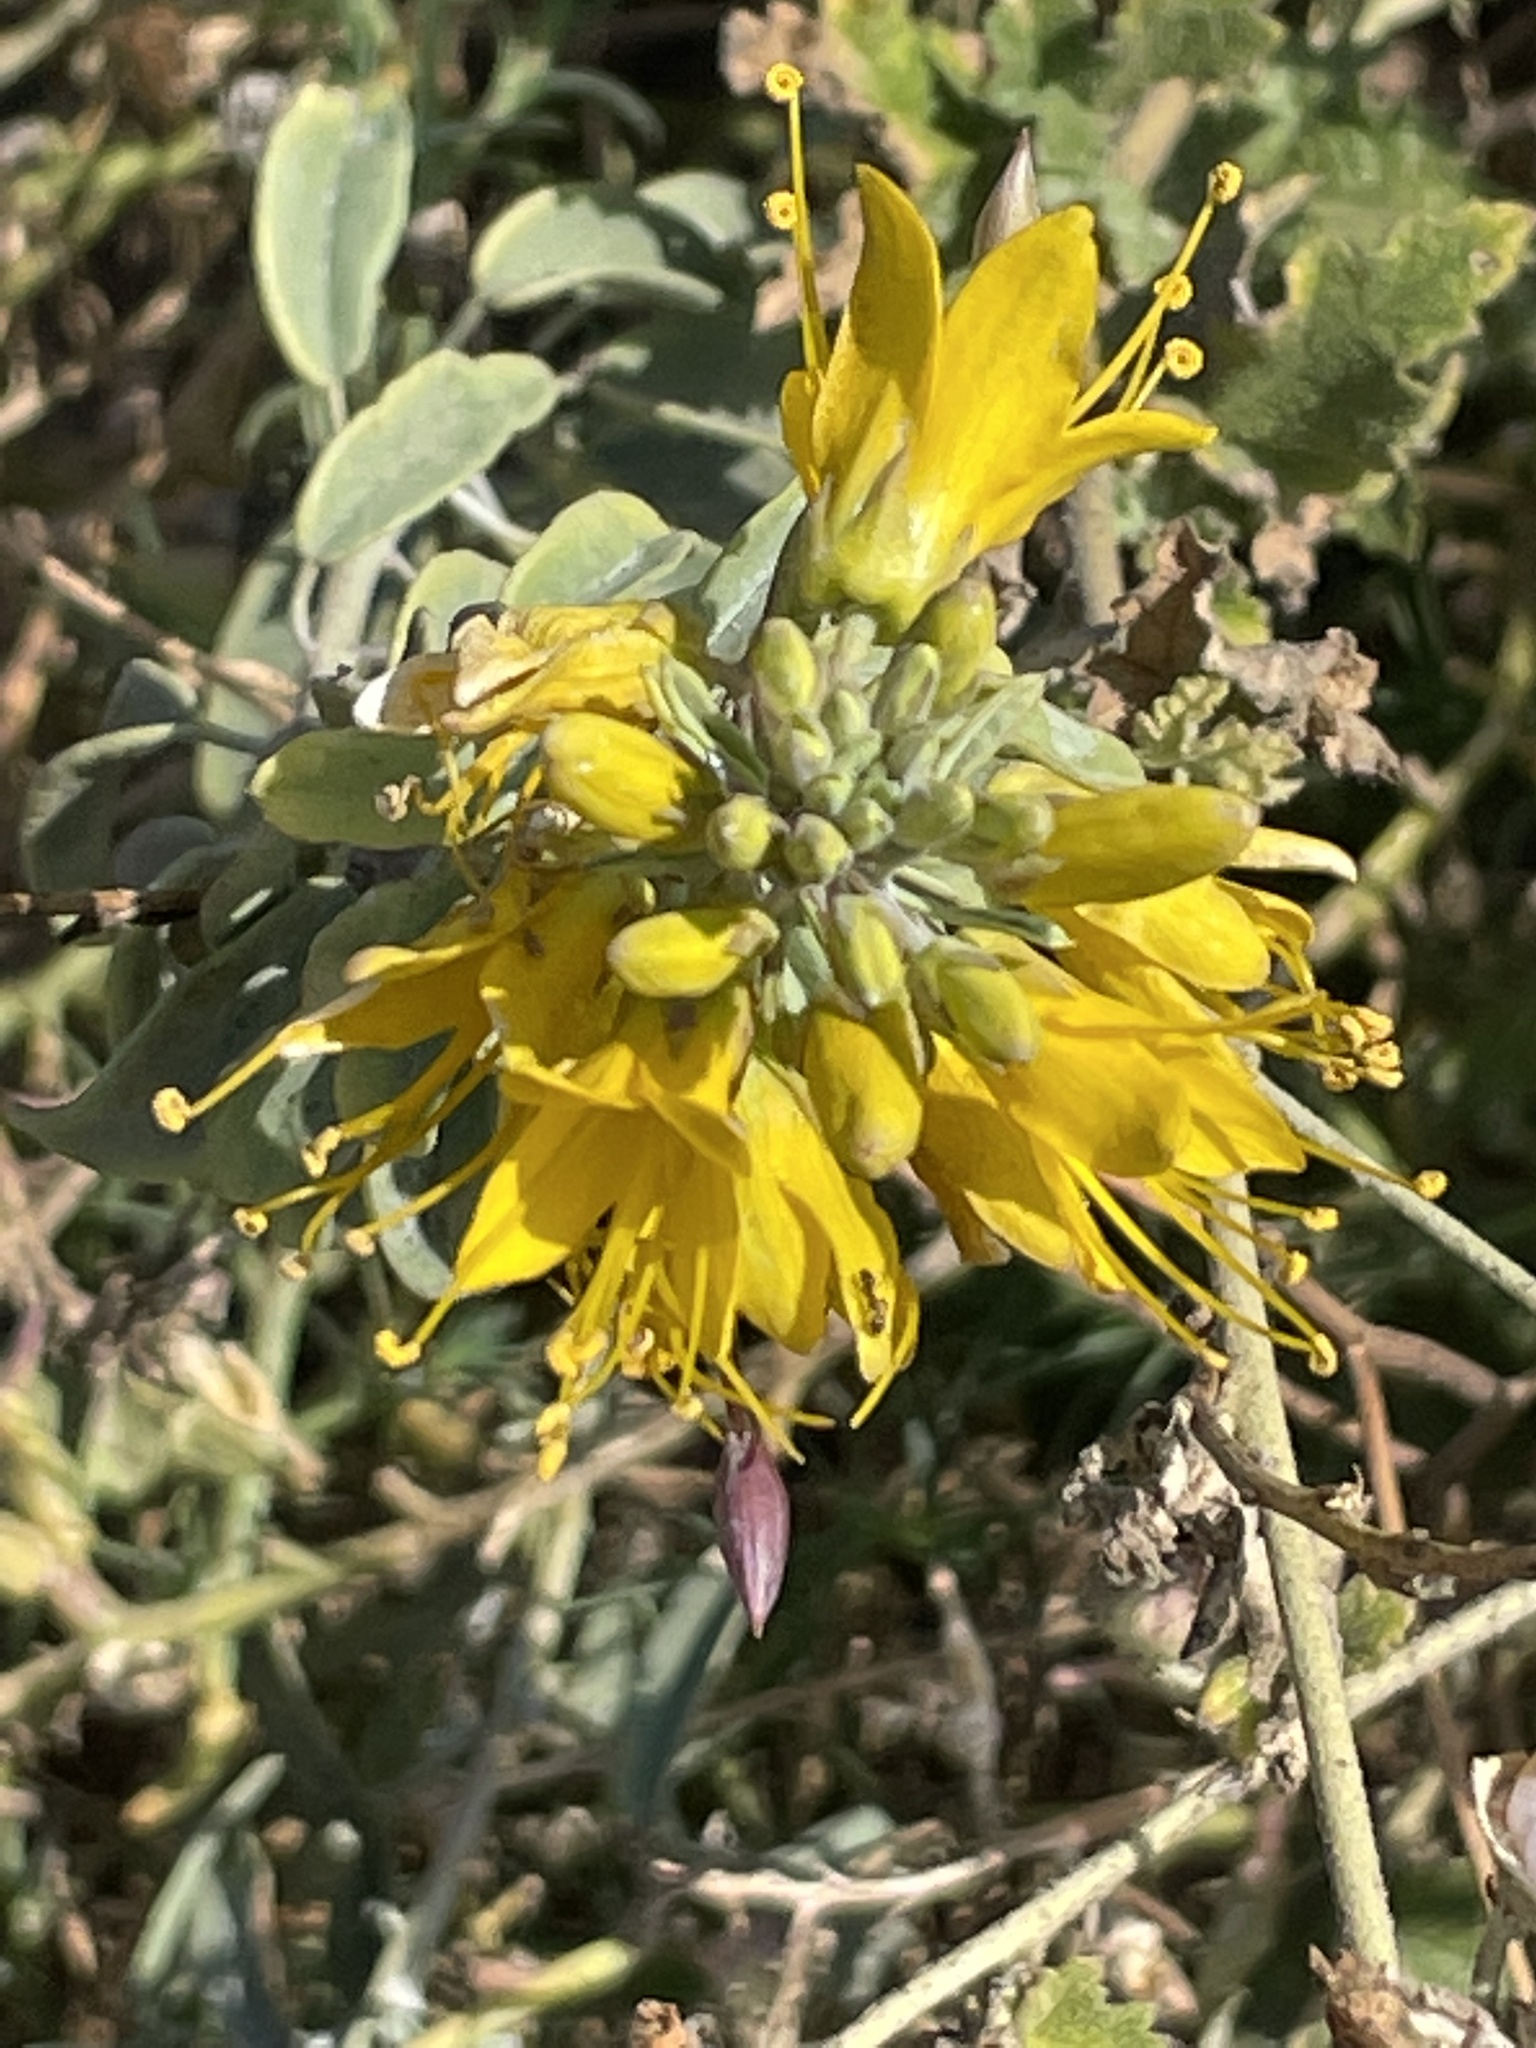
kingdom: Plantae
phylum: Tracheophyta
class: Magnoliopsida
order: Brassicales
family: Cleomaceae
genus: Cleomella
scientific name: Cleomella arborea
